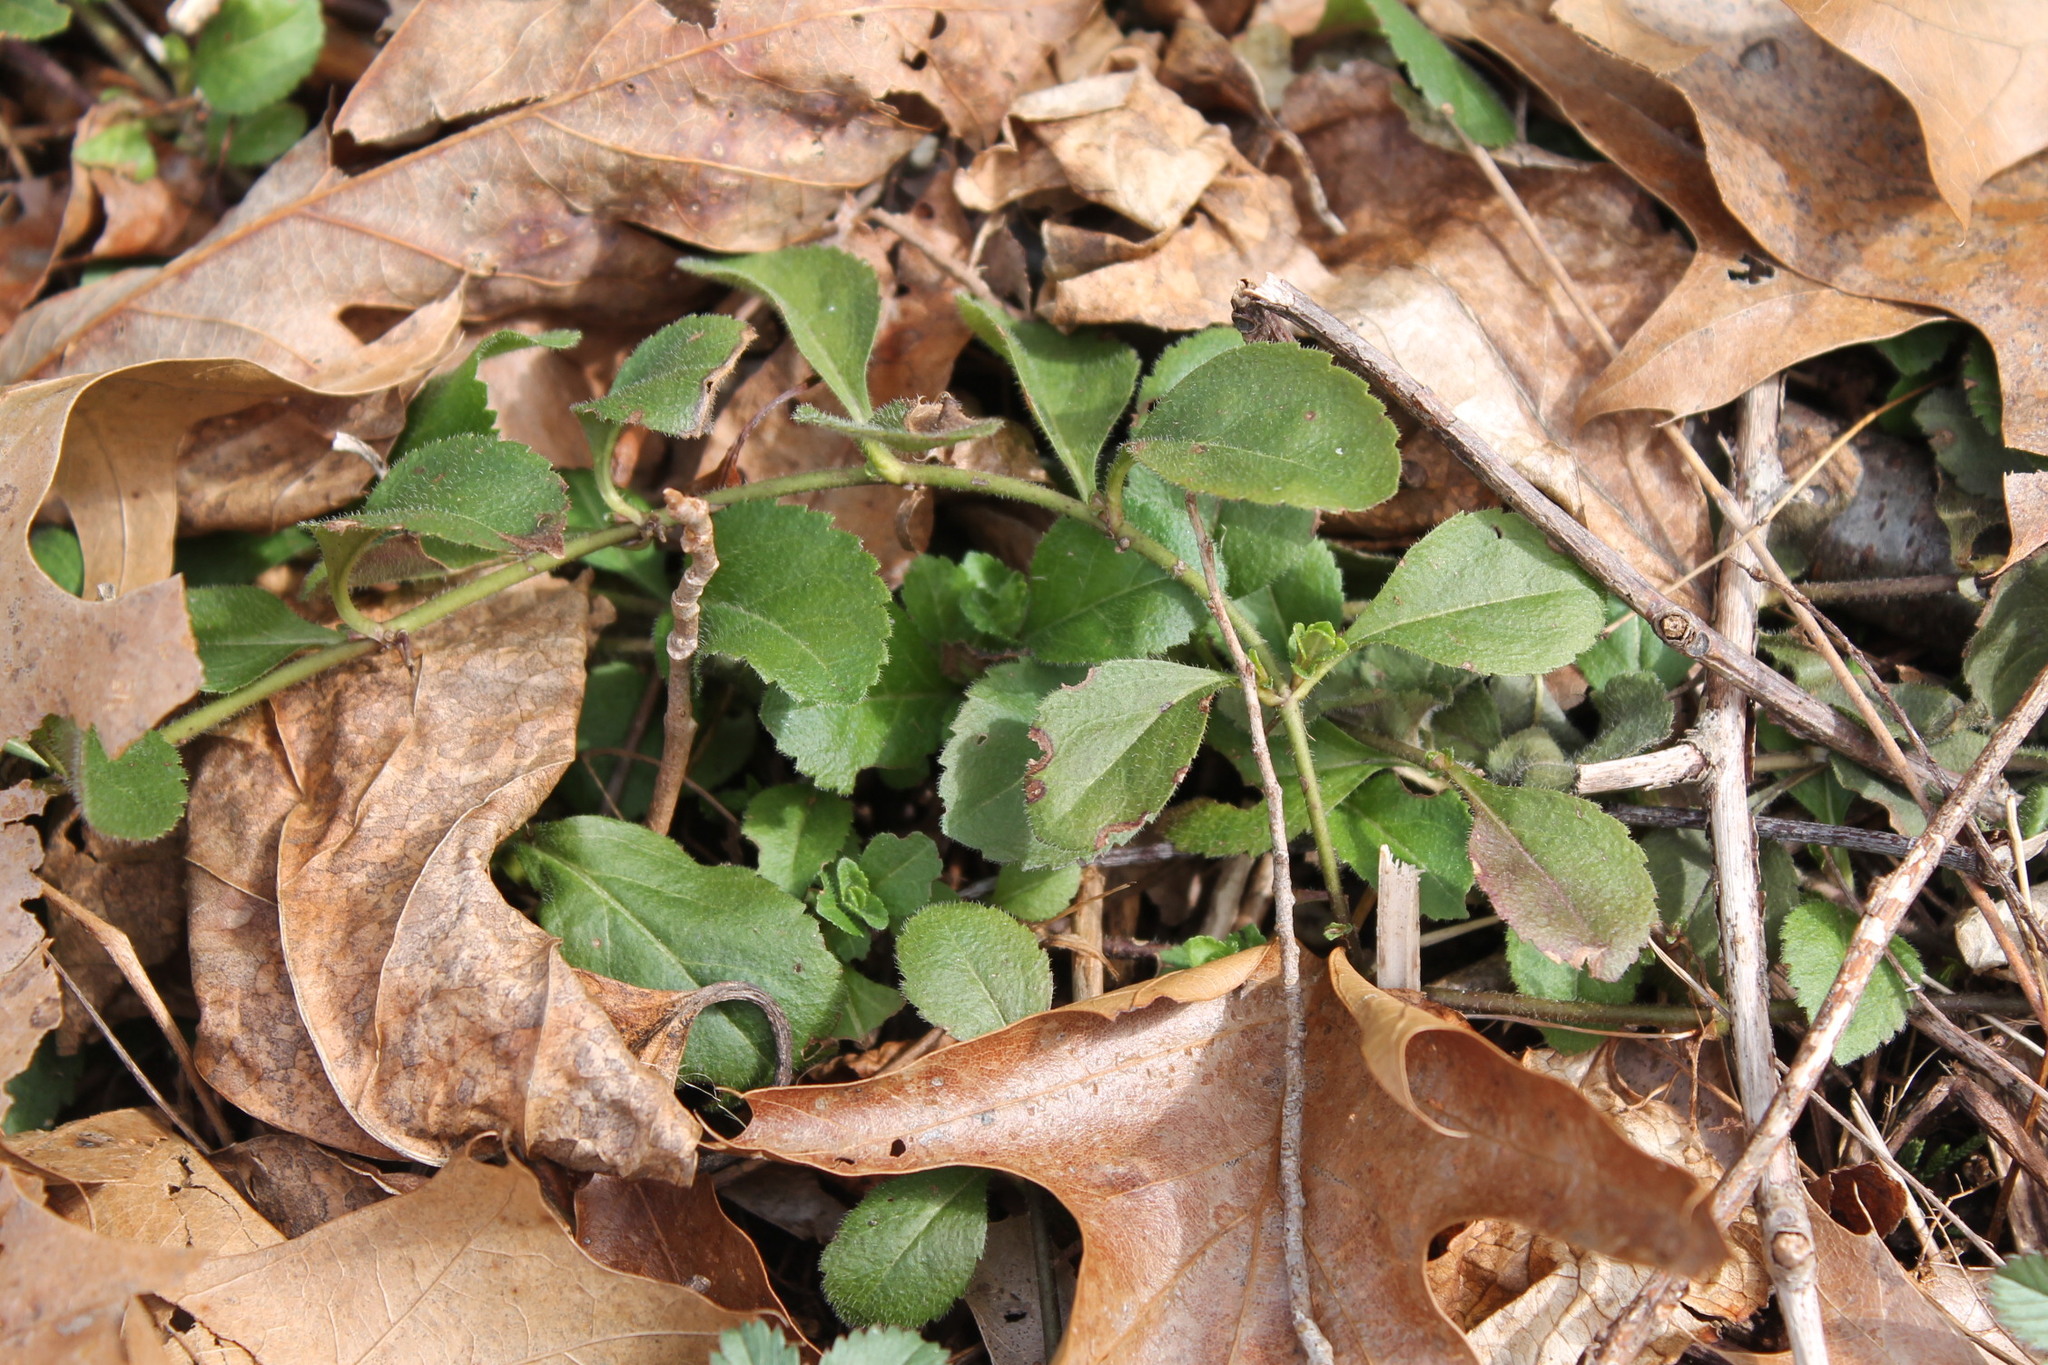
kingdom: Plantae
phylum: Tracheophyta
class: Magnoliopsida
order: Lamiales
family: Plantaginaceae
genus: Veronica
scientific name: Veronica officinalis
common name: Common speedwell
